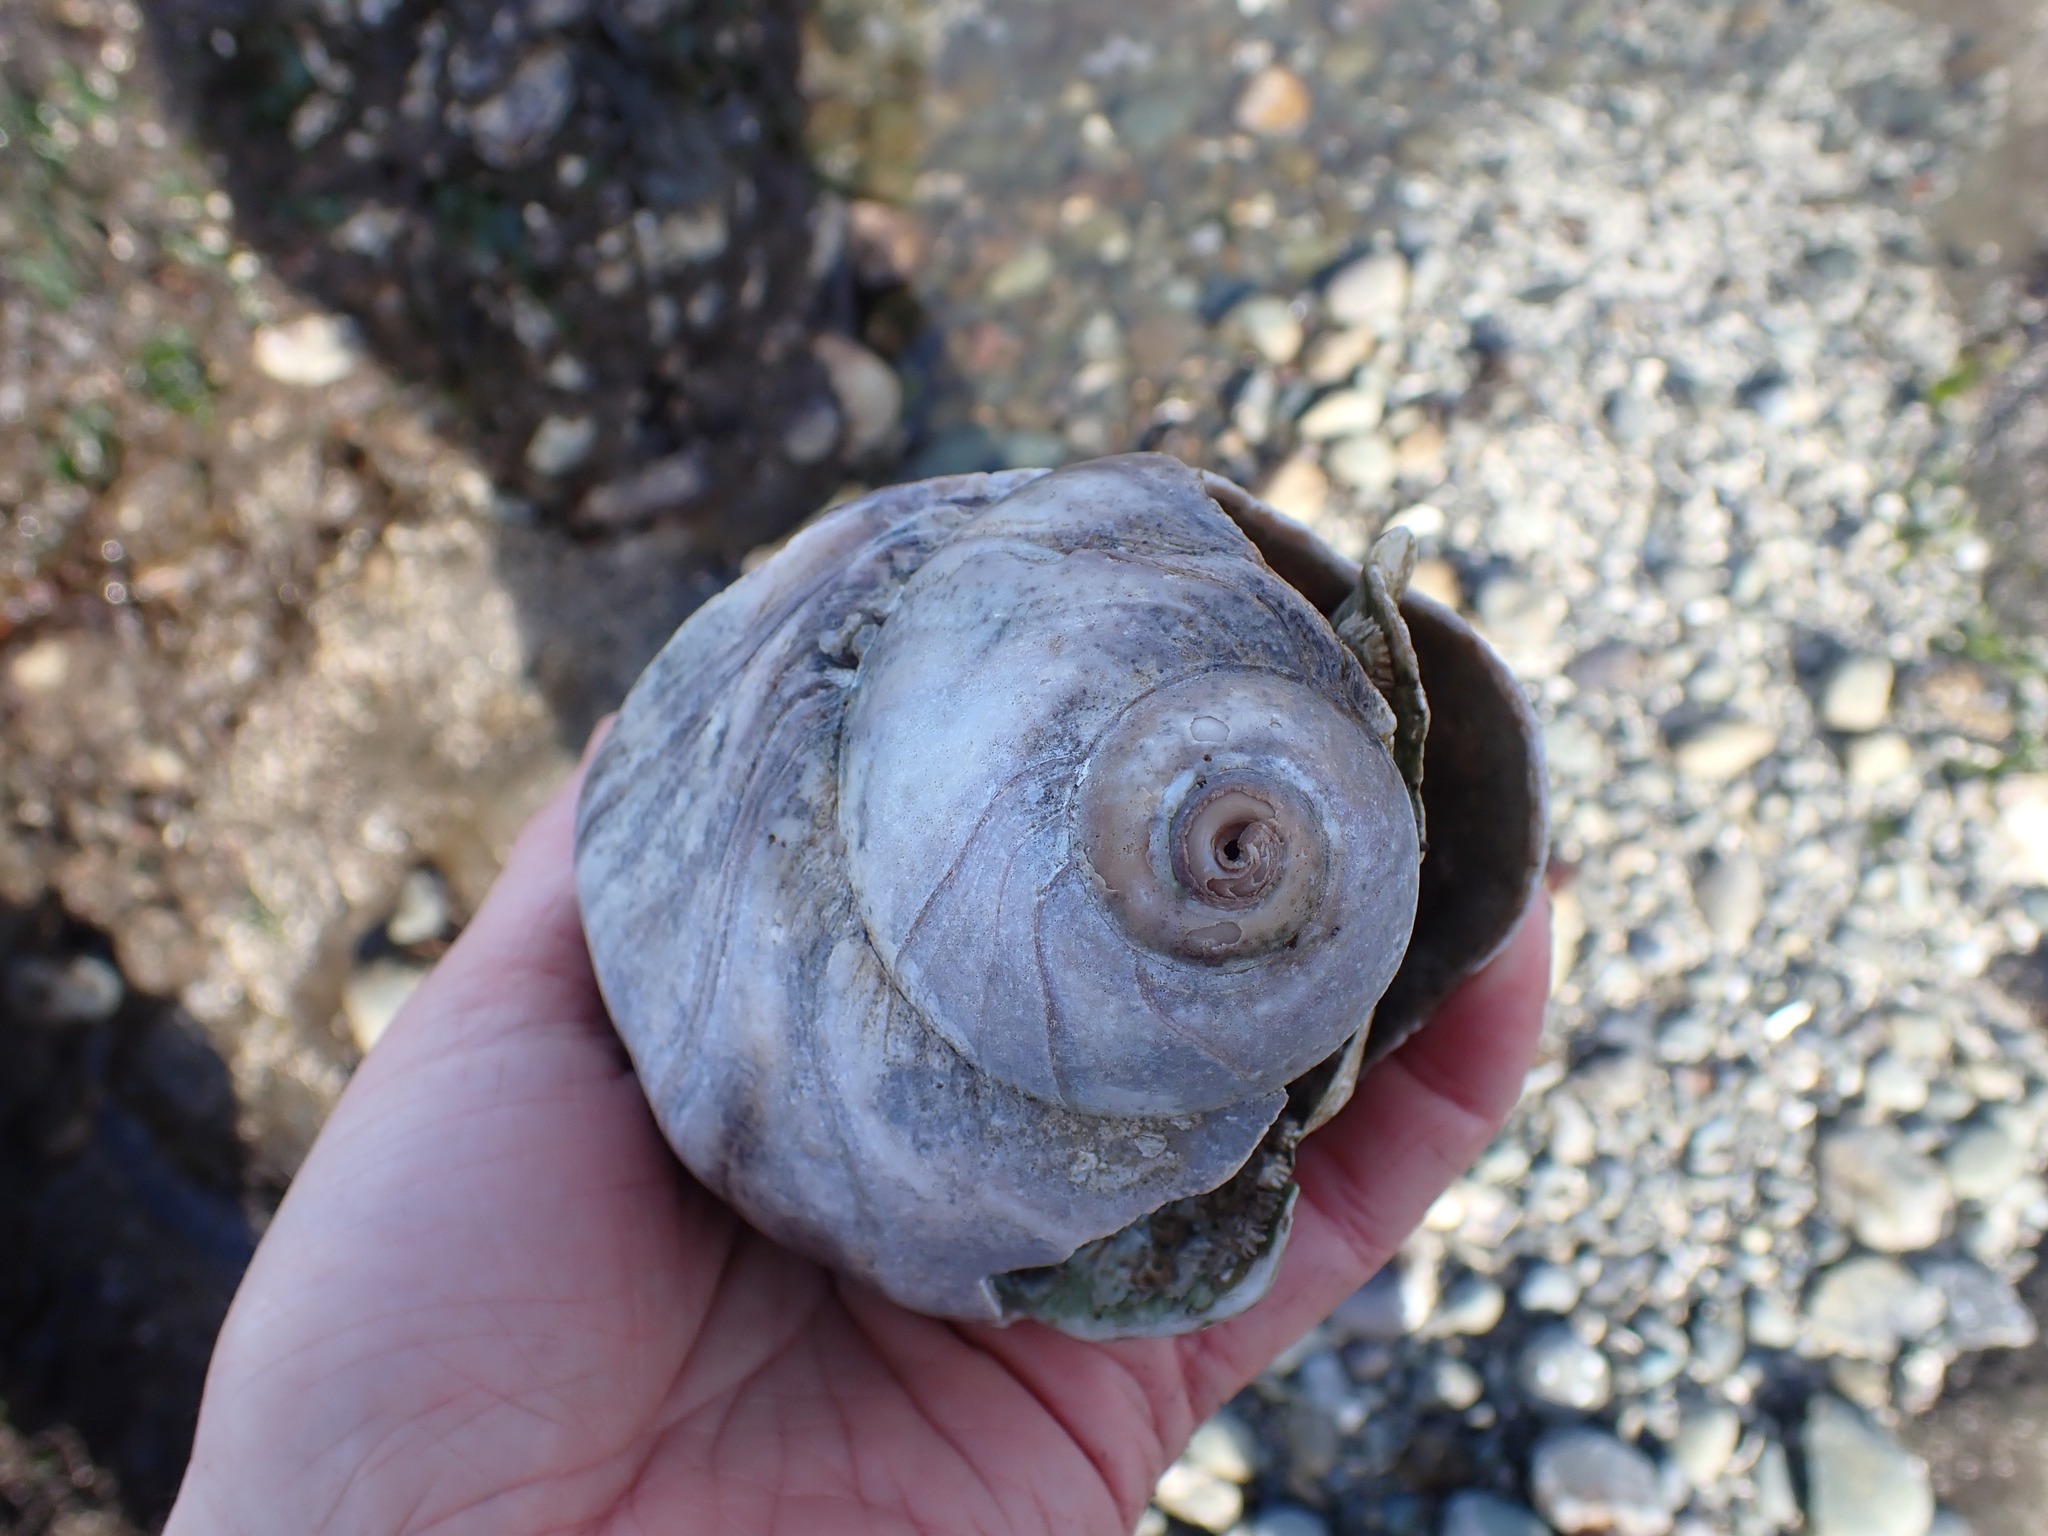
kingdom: Animalia
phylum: Mollusca
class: Gastropoda
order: Littorinimorpha
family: Naticidae
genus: Neverita
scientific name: Neverita lewisii
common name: Lewis' moonsnail
